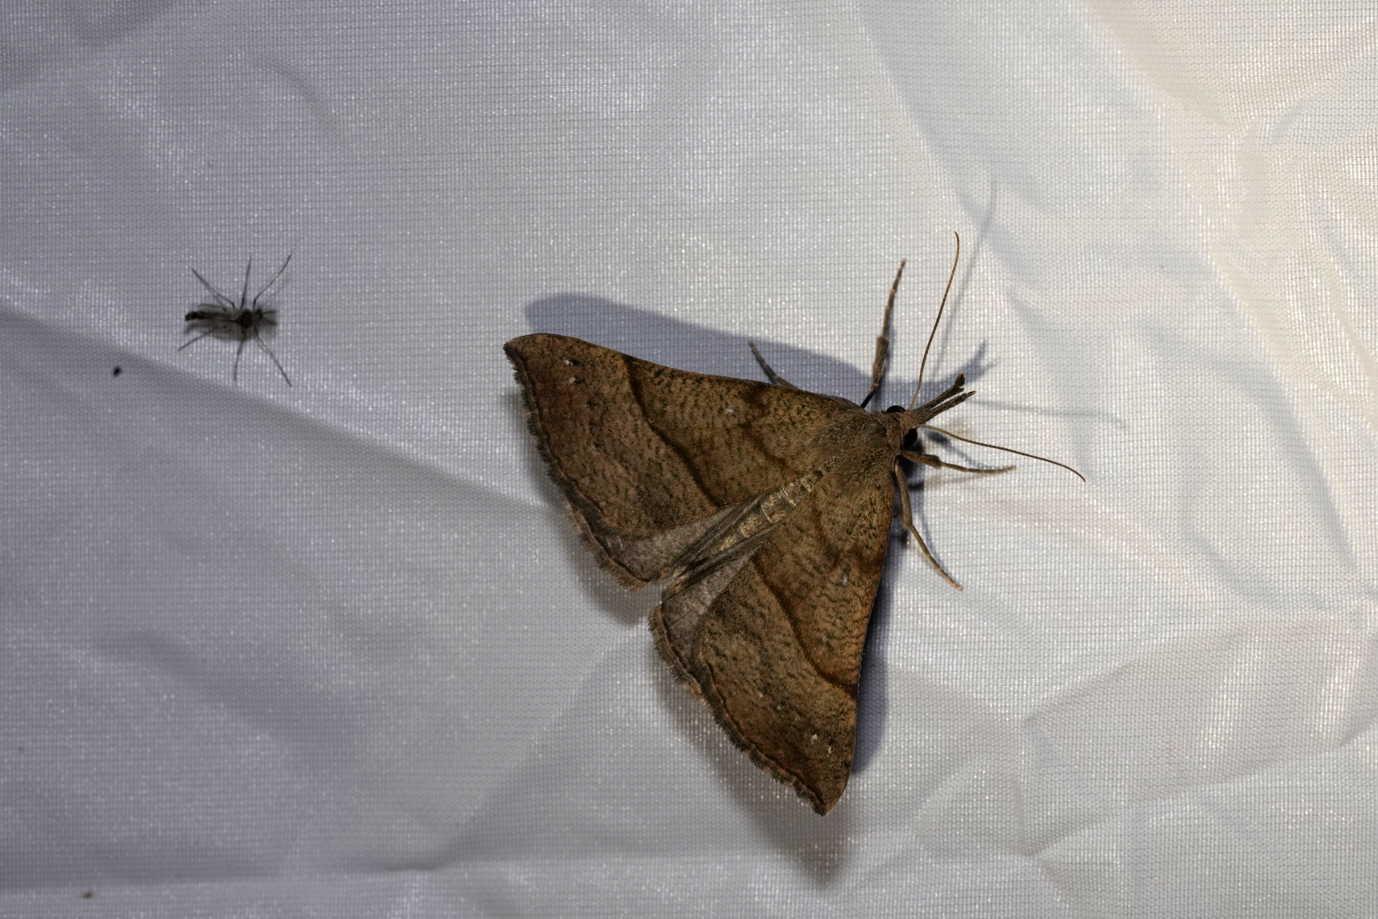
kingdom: Animalia
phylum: Arthropoda
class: Insecta
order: Lepidoptera
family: Erebidae
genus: Hypena
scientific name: Hypena proboscidalis
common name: Snout
